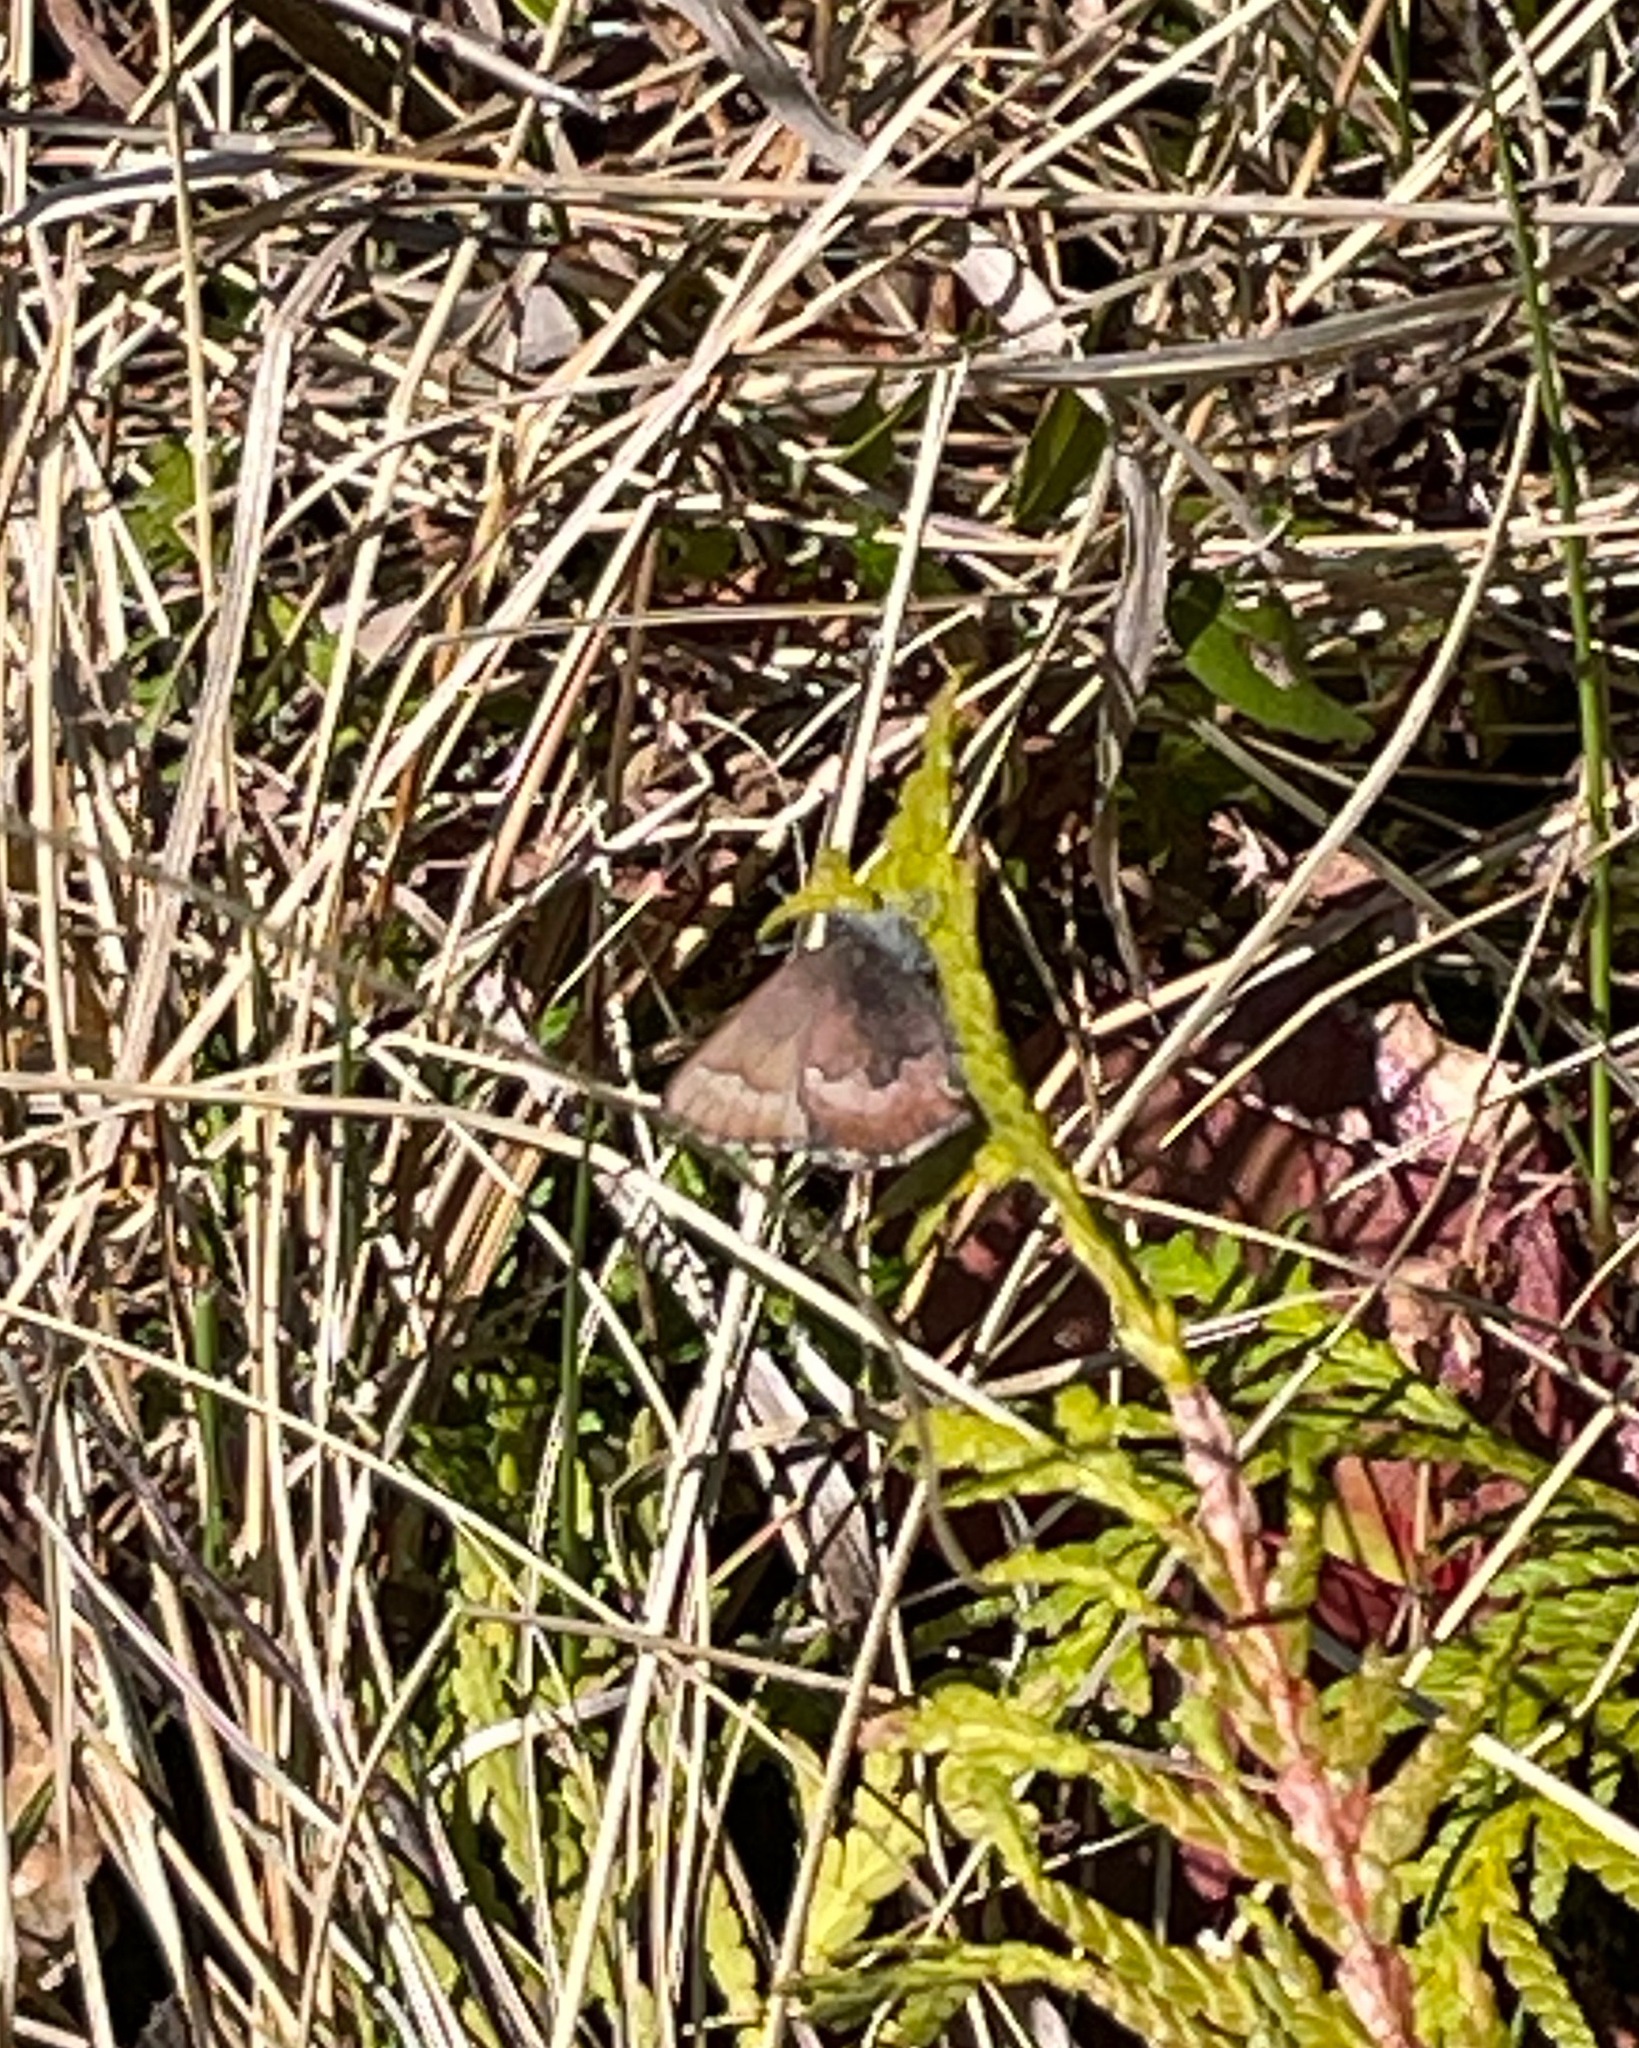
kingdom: Animalia
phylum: Arthropoda
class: Insecta
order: Lepidoptera
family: Lycaenidae
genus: Incisalia
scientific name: Incisalia irioides
